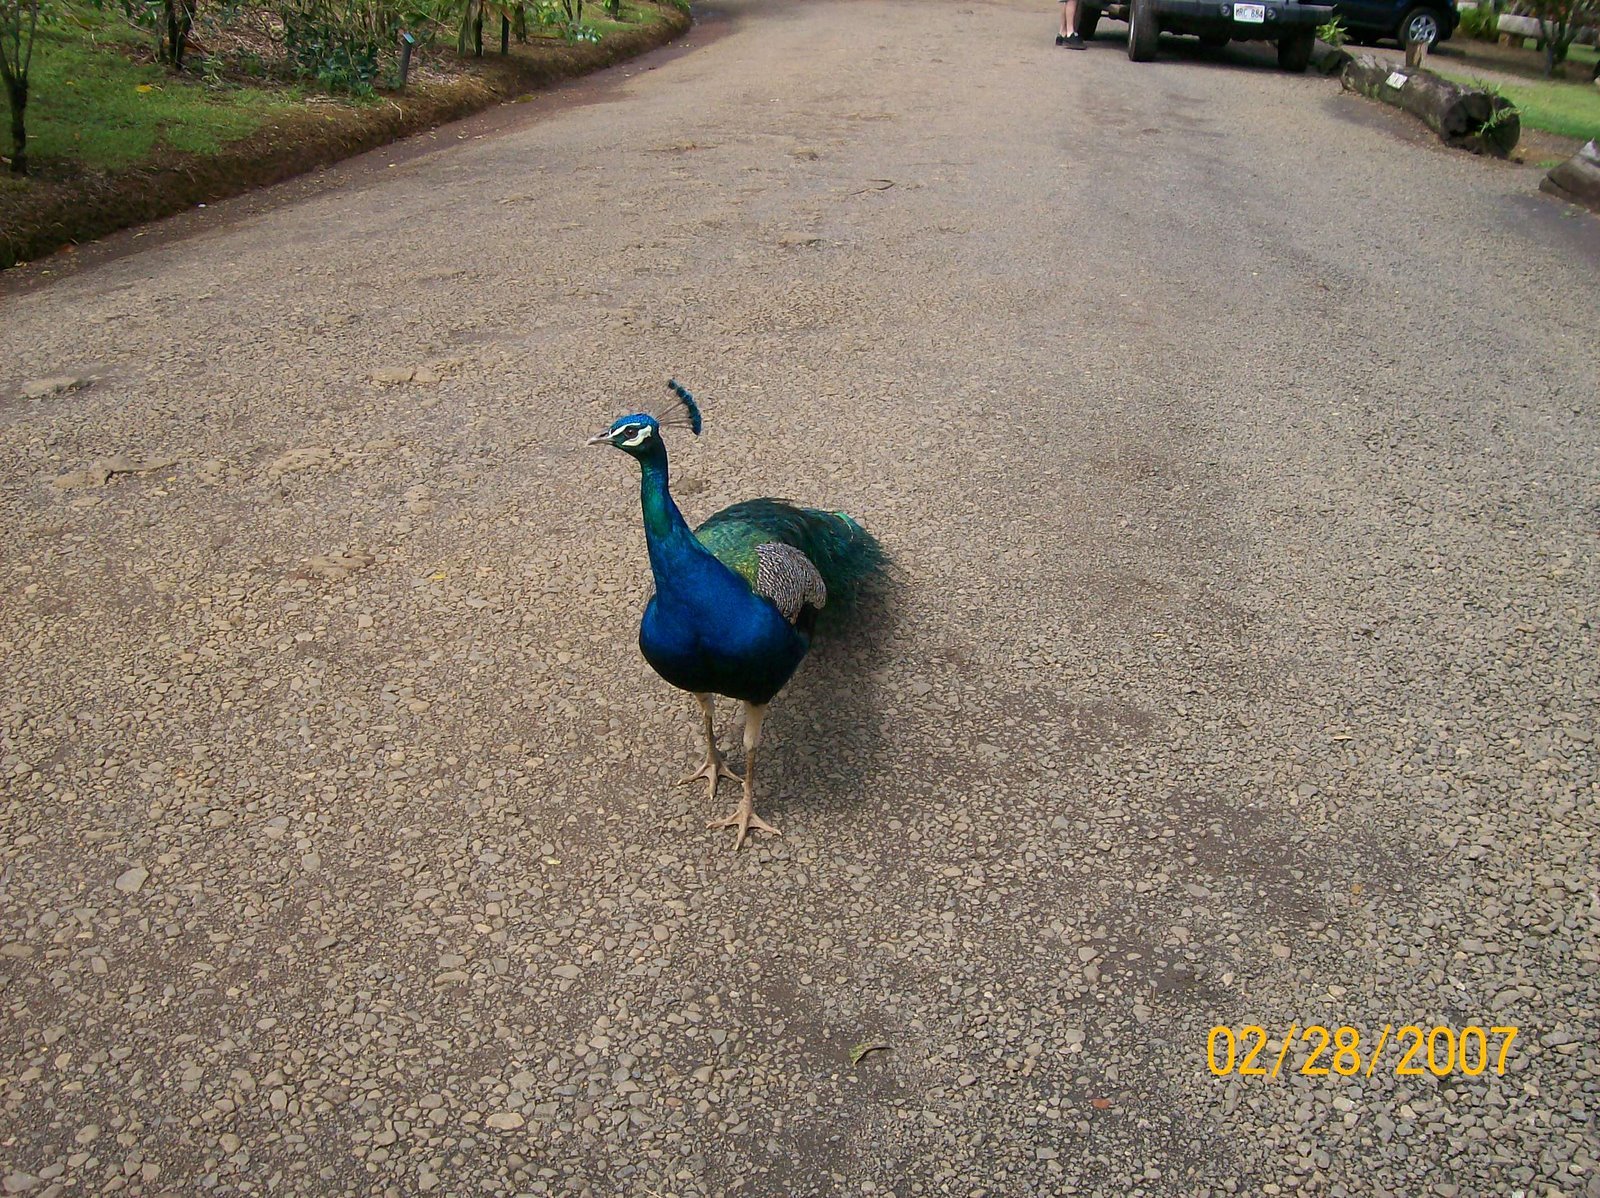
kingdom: Animalia
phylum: Chordata
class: Aves
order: Galliformes
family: Phasianidae
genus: Pavo
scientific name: Pavo cristatus
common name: Indian peafowl
